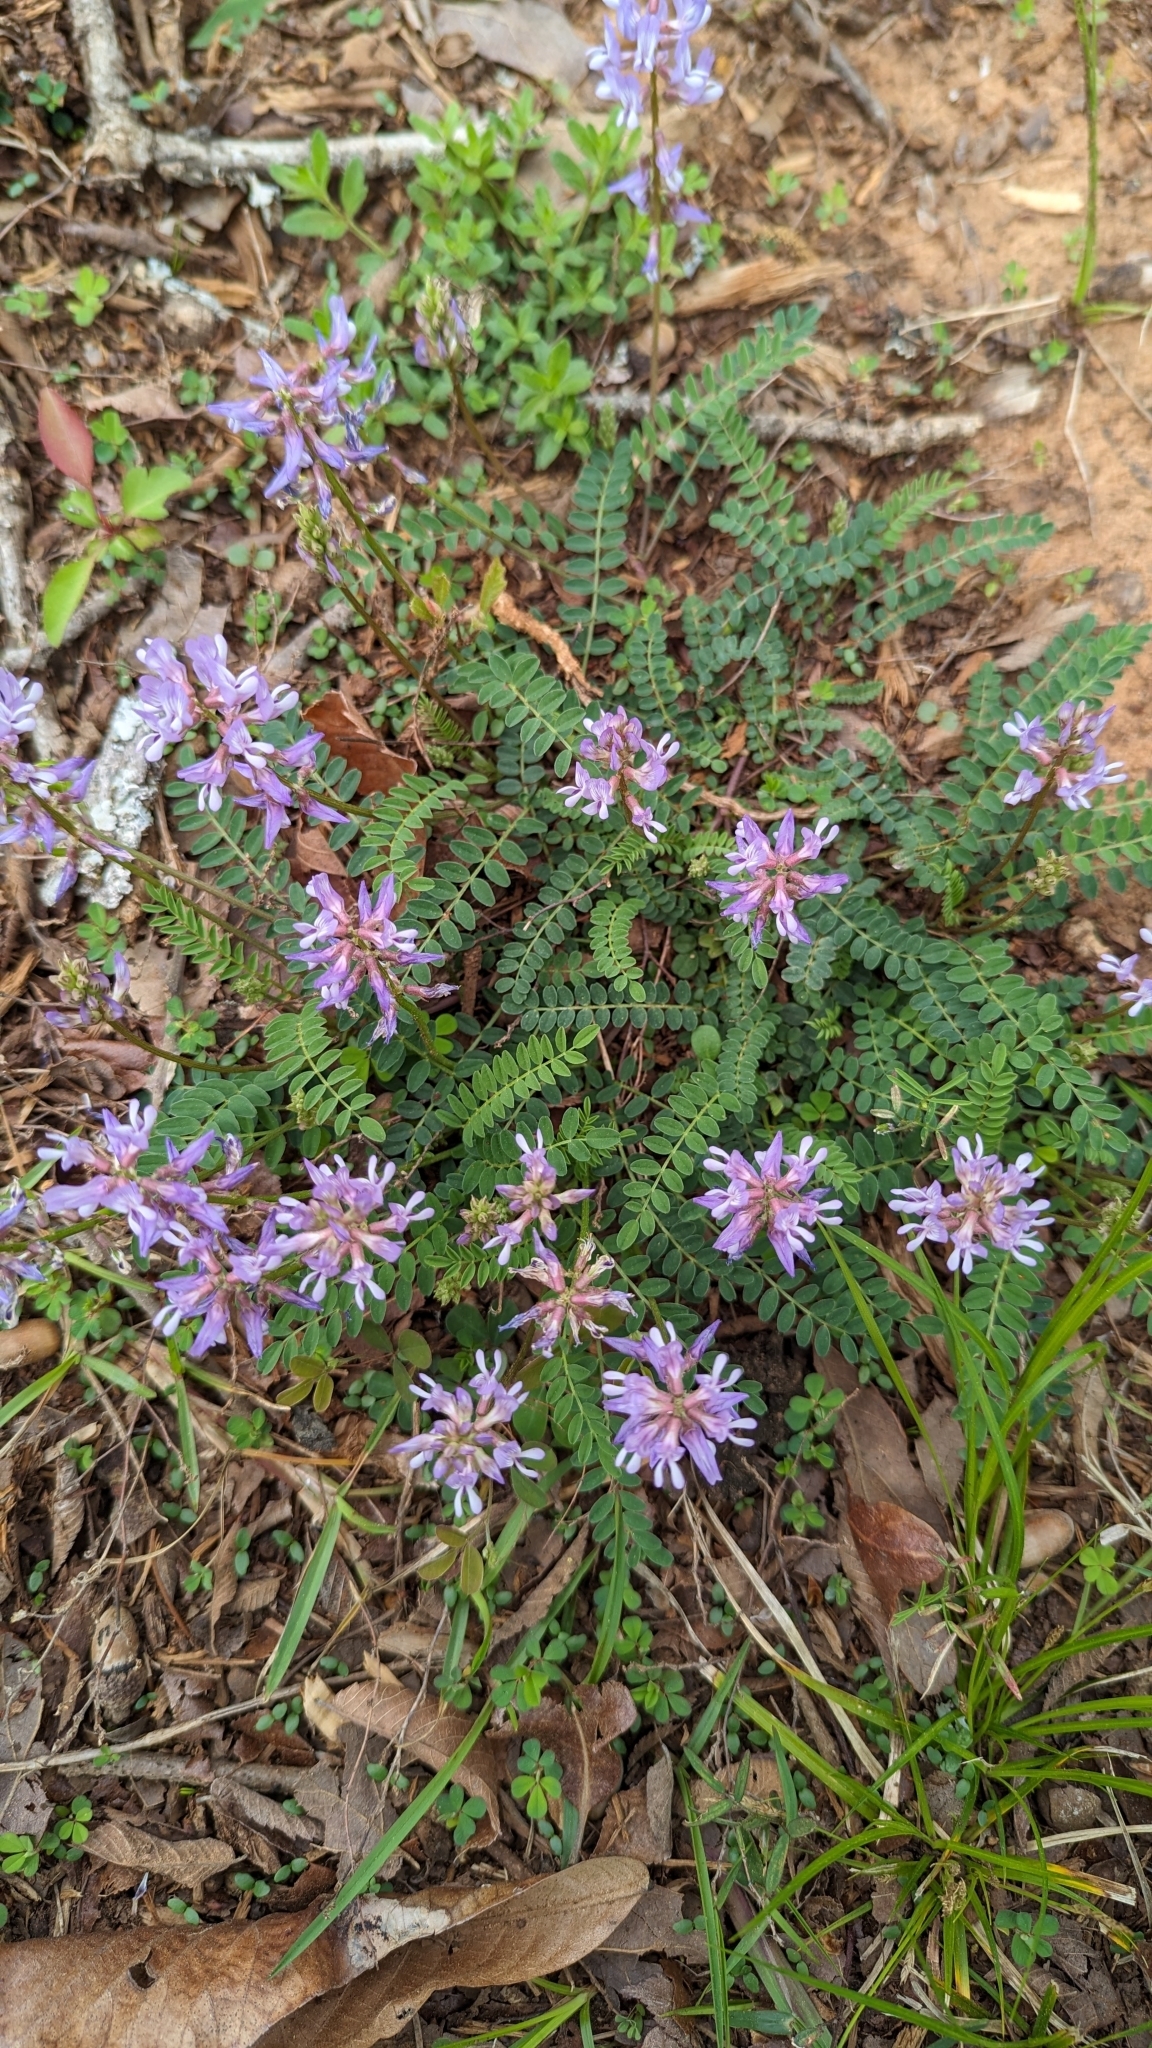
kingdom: Plantae
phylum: Tracheophyta
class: Magnoliopsida
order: Fabales
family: Fabaceae
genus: Astragalus
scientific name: Astragalus distortus
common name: Ozark milk-vetch
